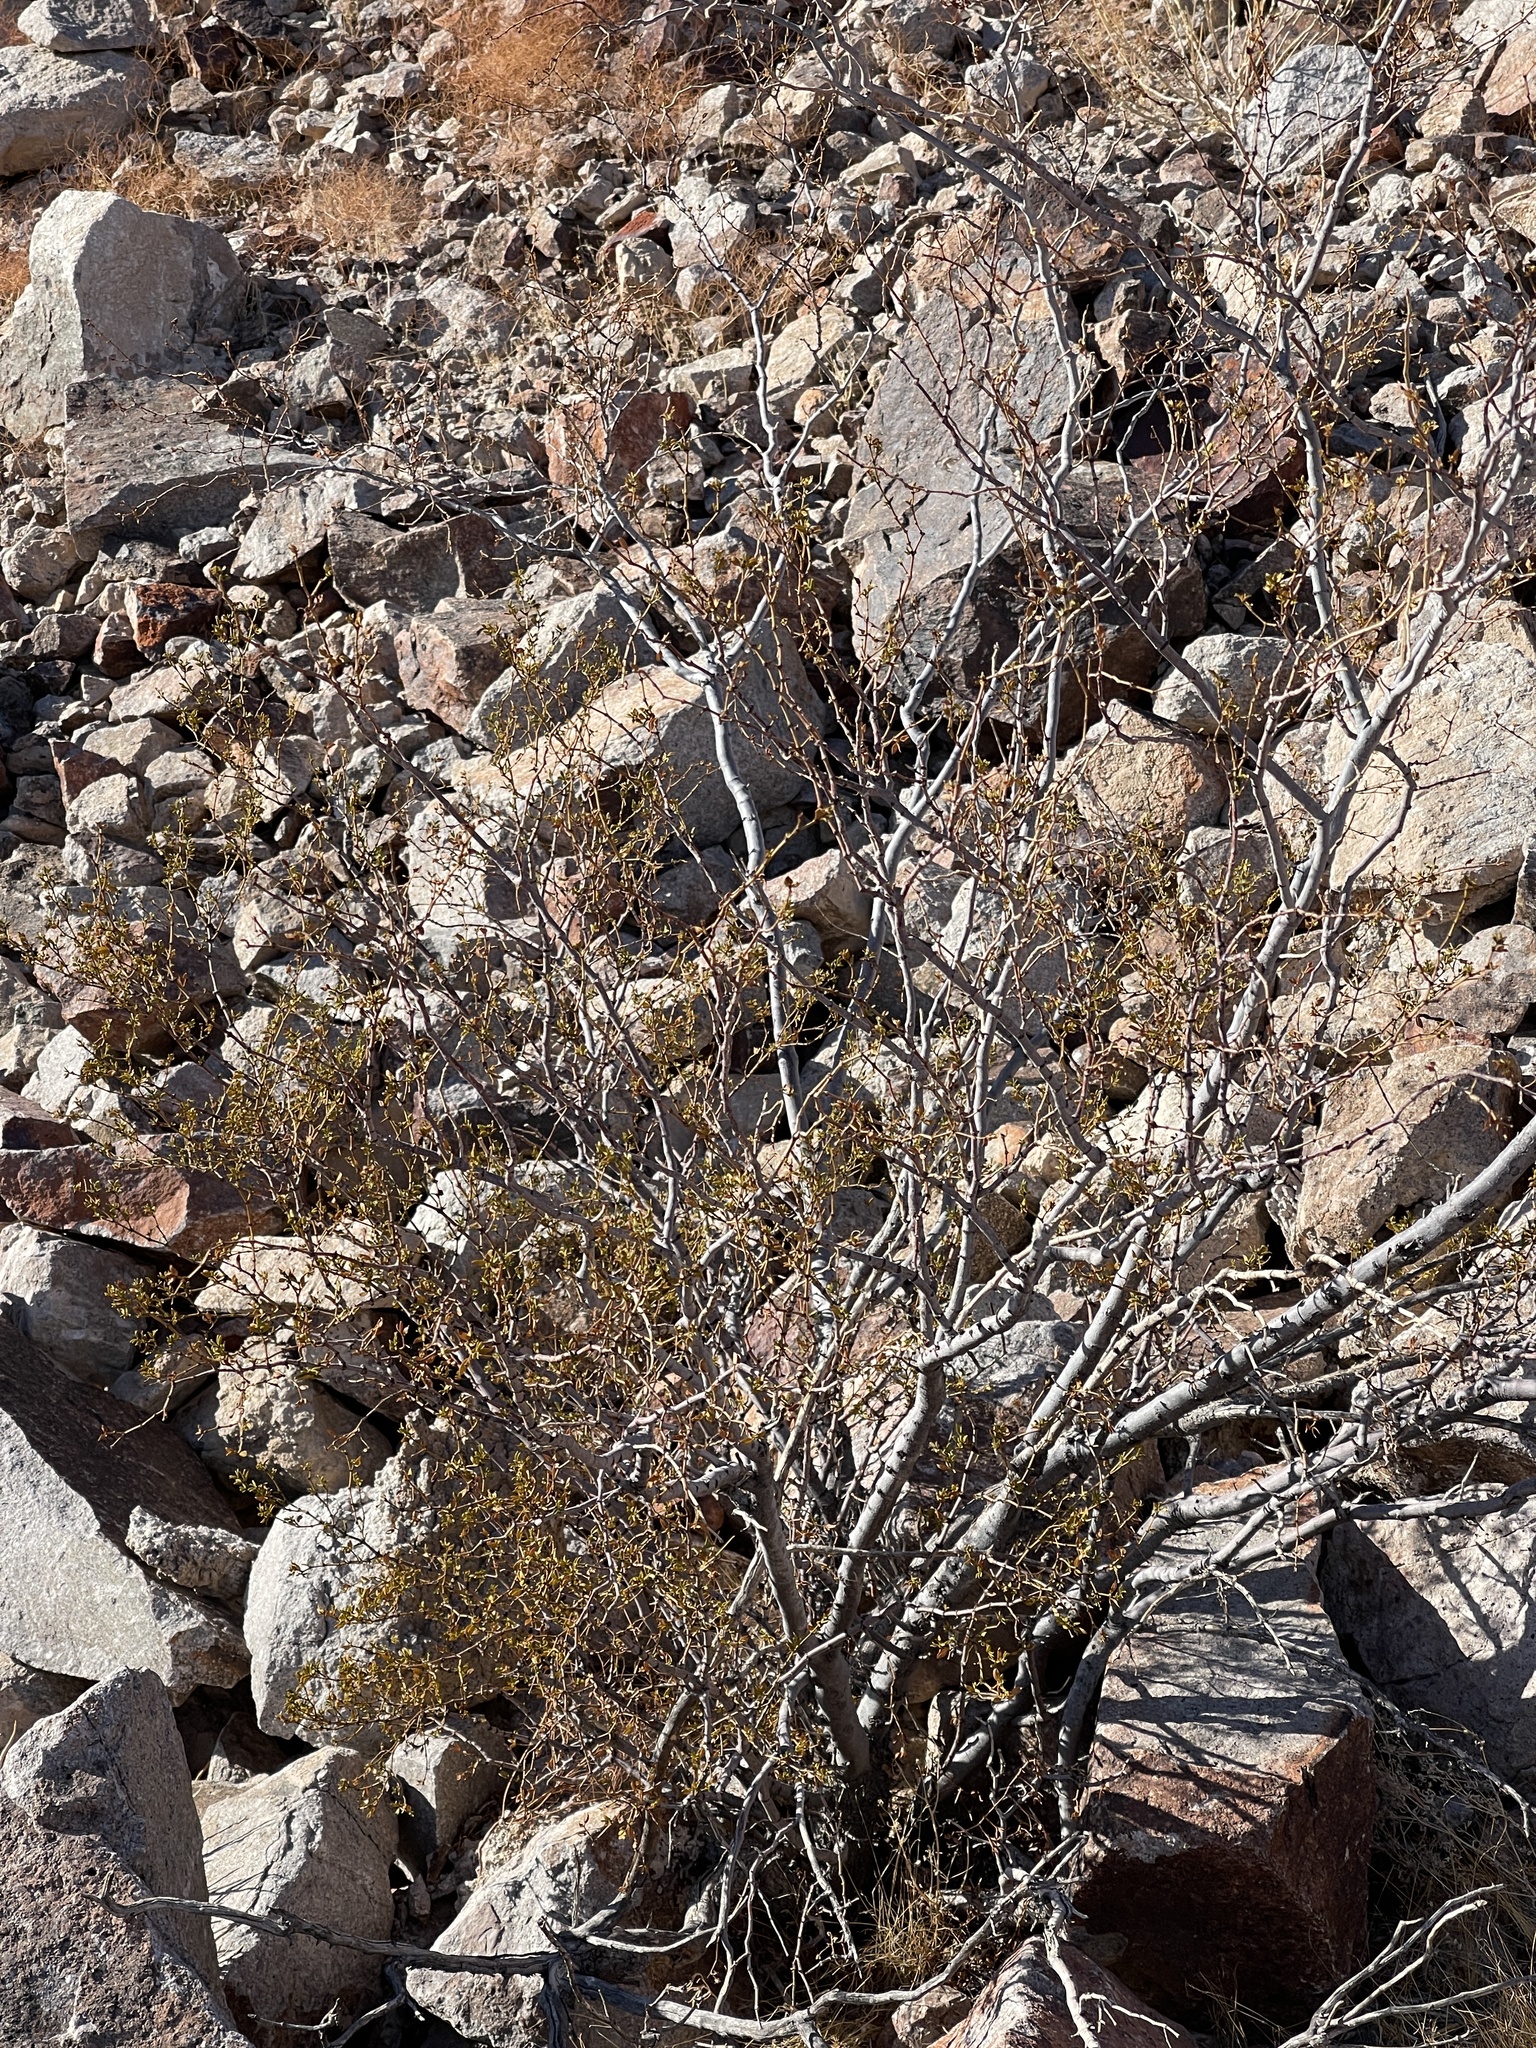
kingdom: Plantae
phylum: Tracheophyta
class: Magnoliopsida
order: Zygophyllales
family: Zygophyllaceae
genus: Larrea
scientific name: Larrea tridentata
